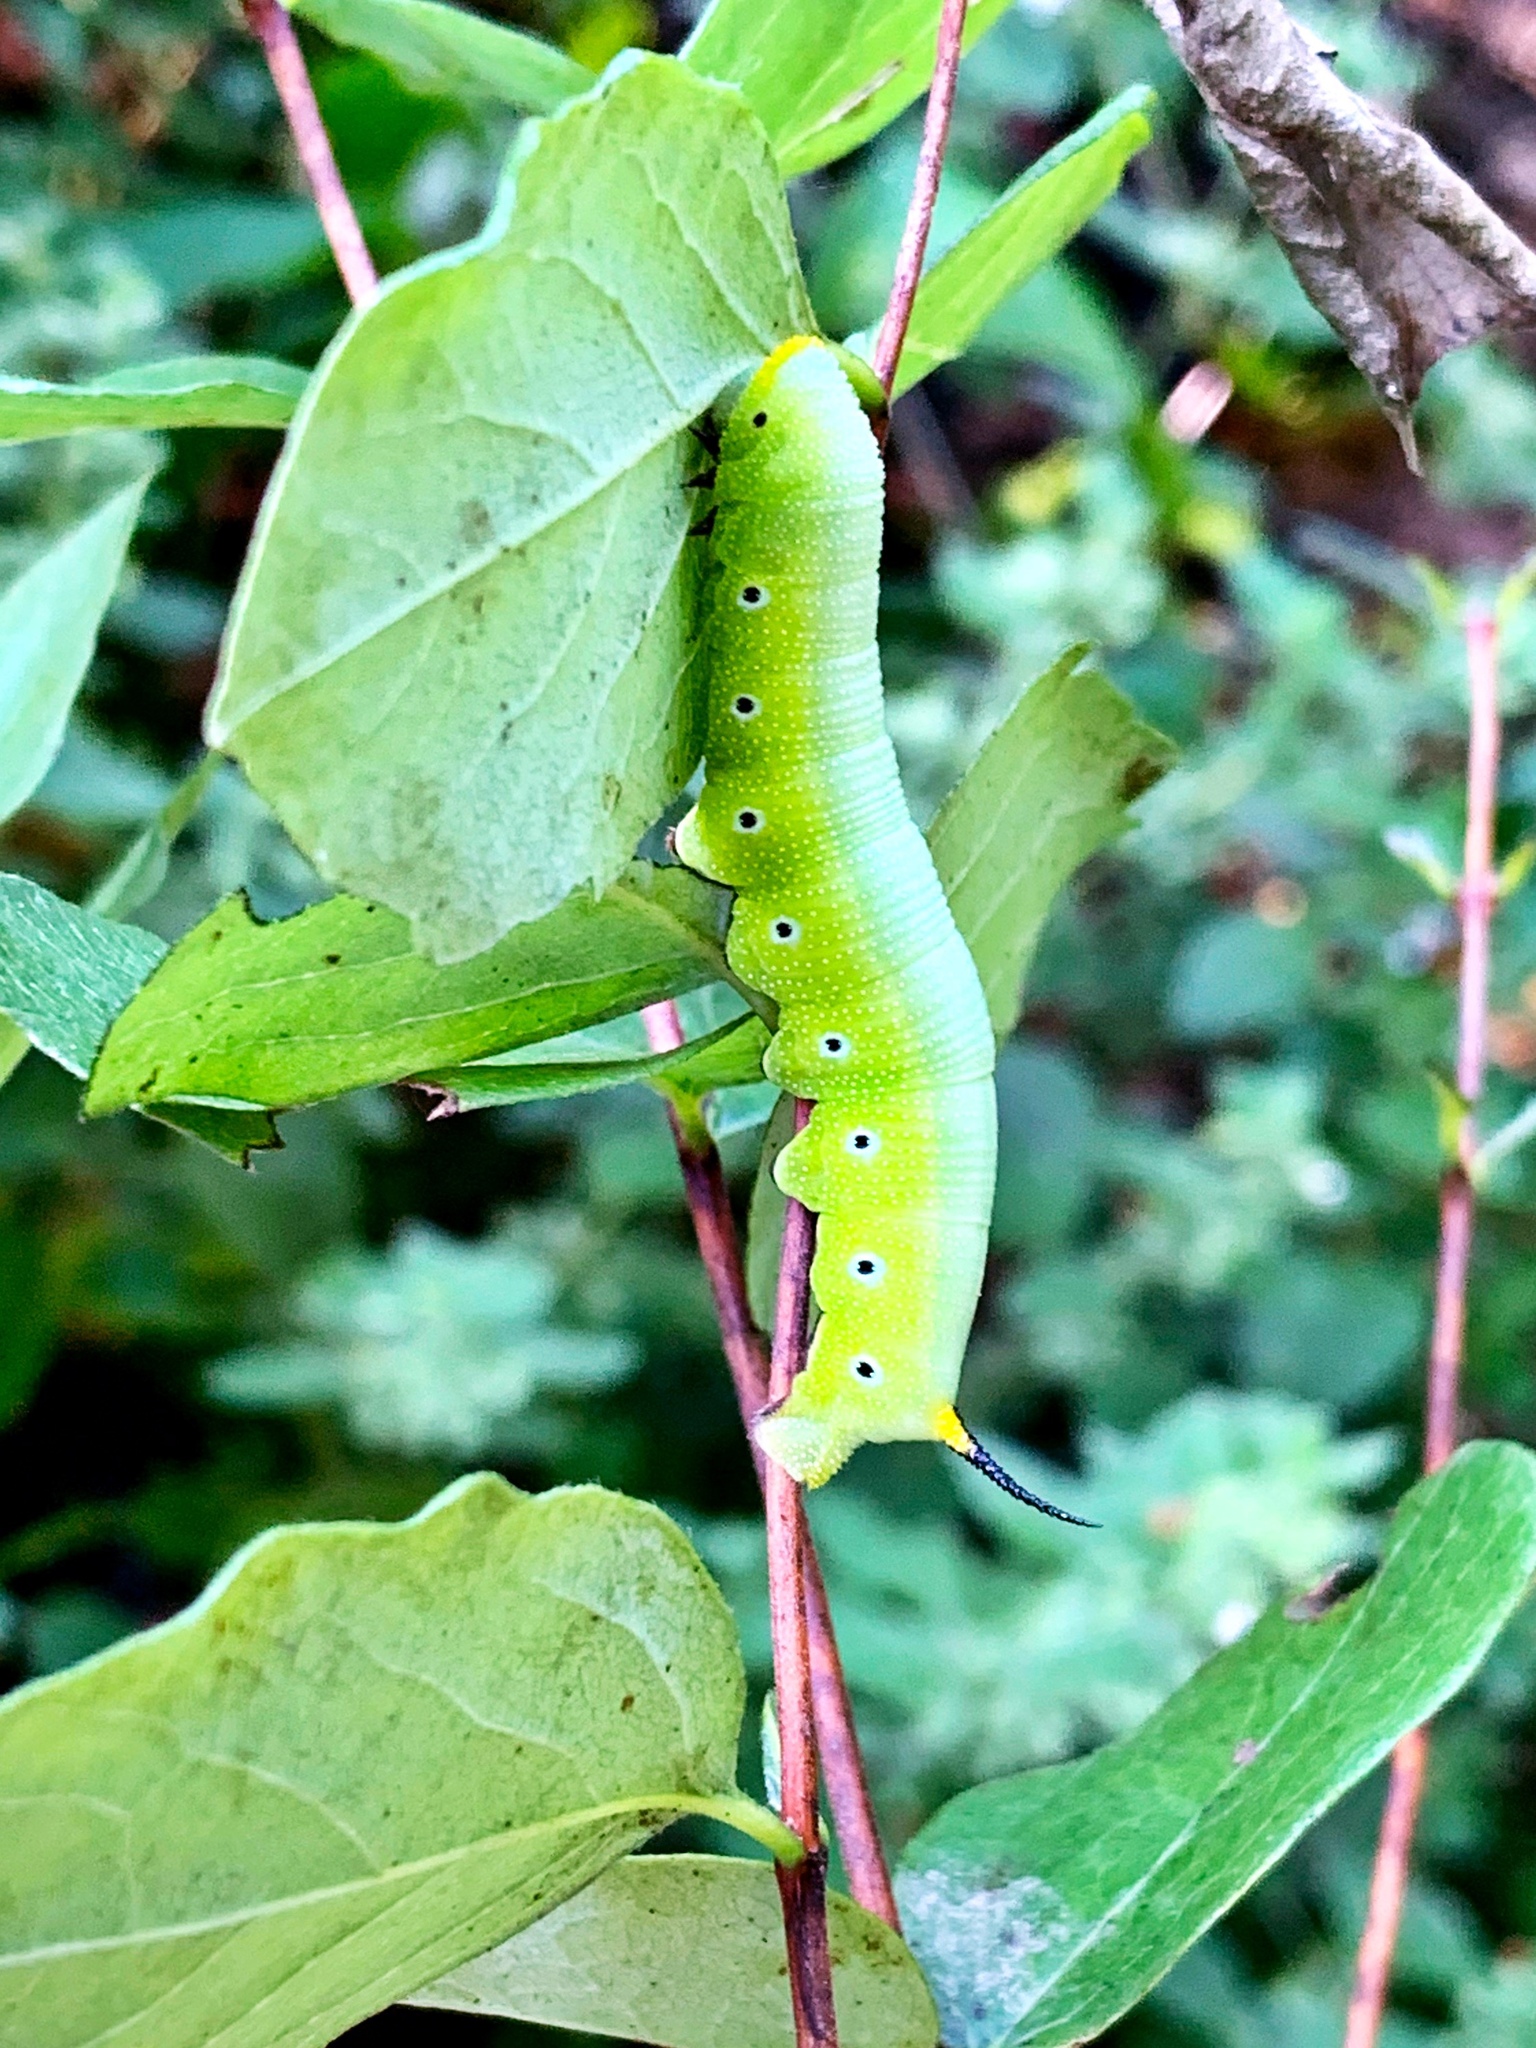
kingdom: Animalia
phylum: Arthropoda
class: Insecta
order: Lepidoptera
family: Sphingidae
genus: Hemaris
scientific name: Hemaris diffinis
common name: Bumblebee moth
